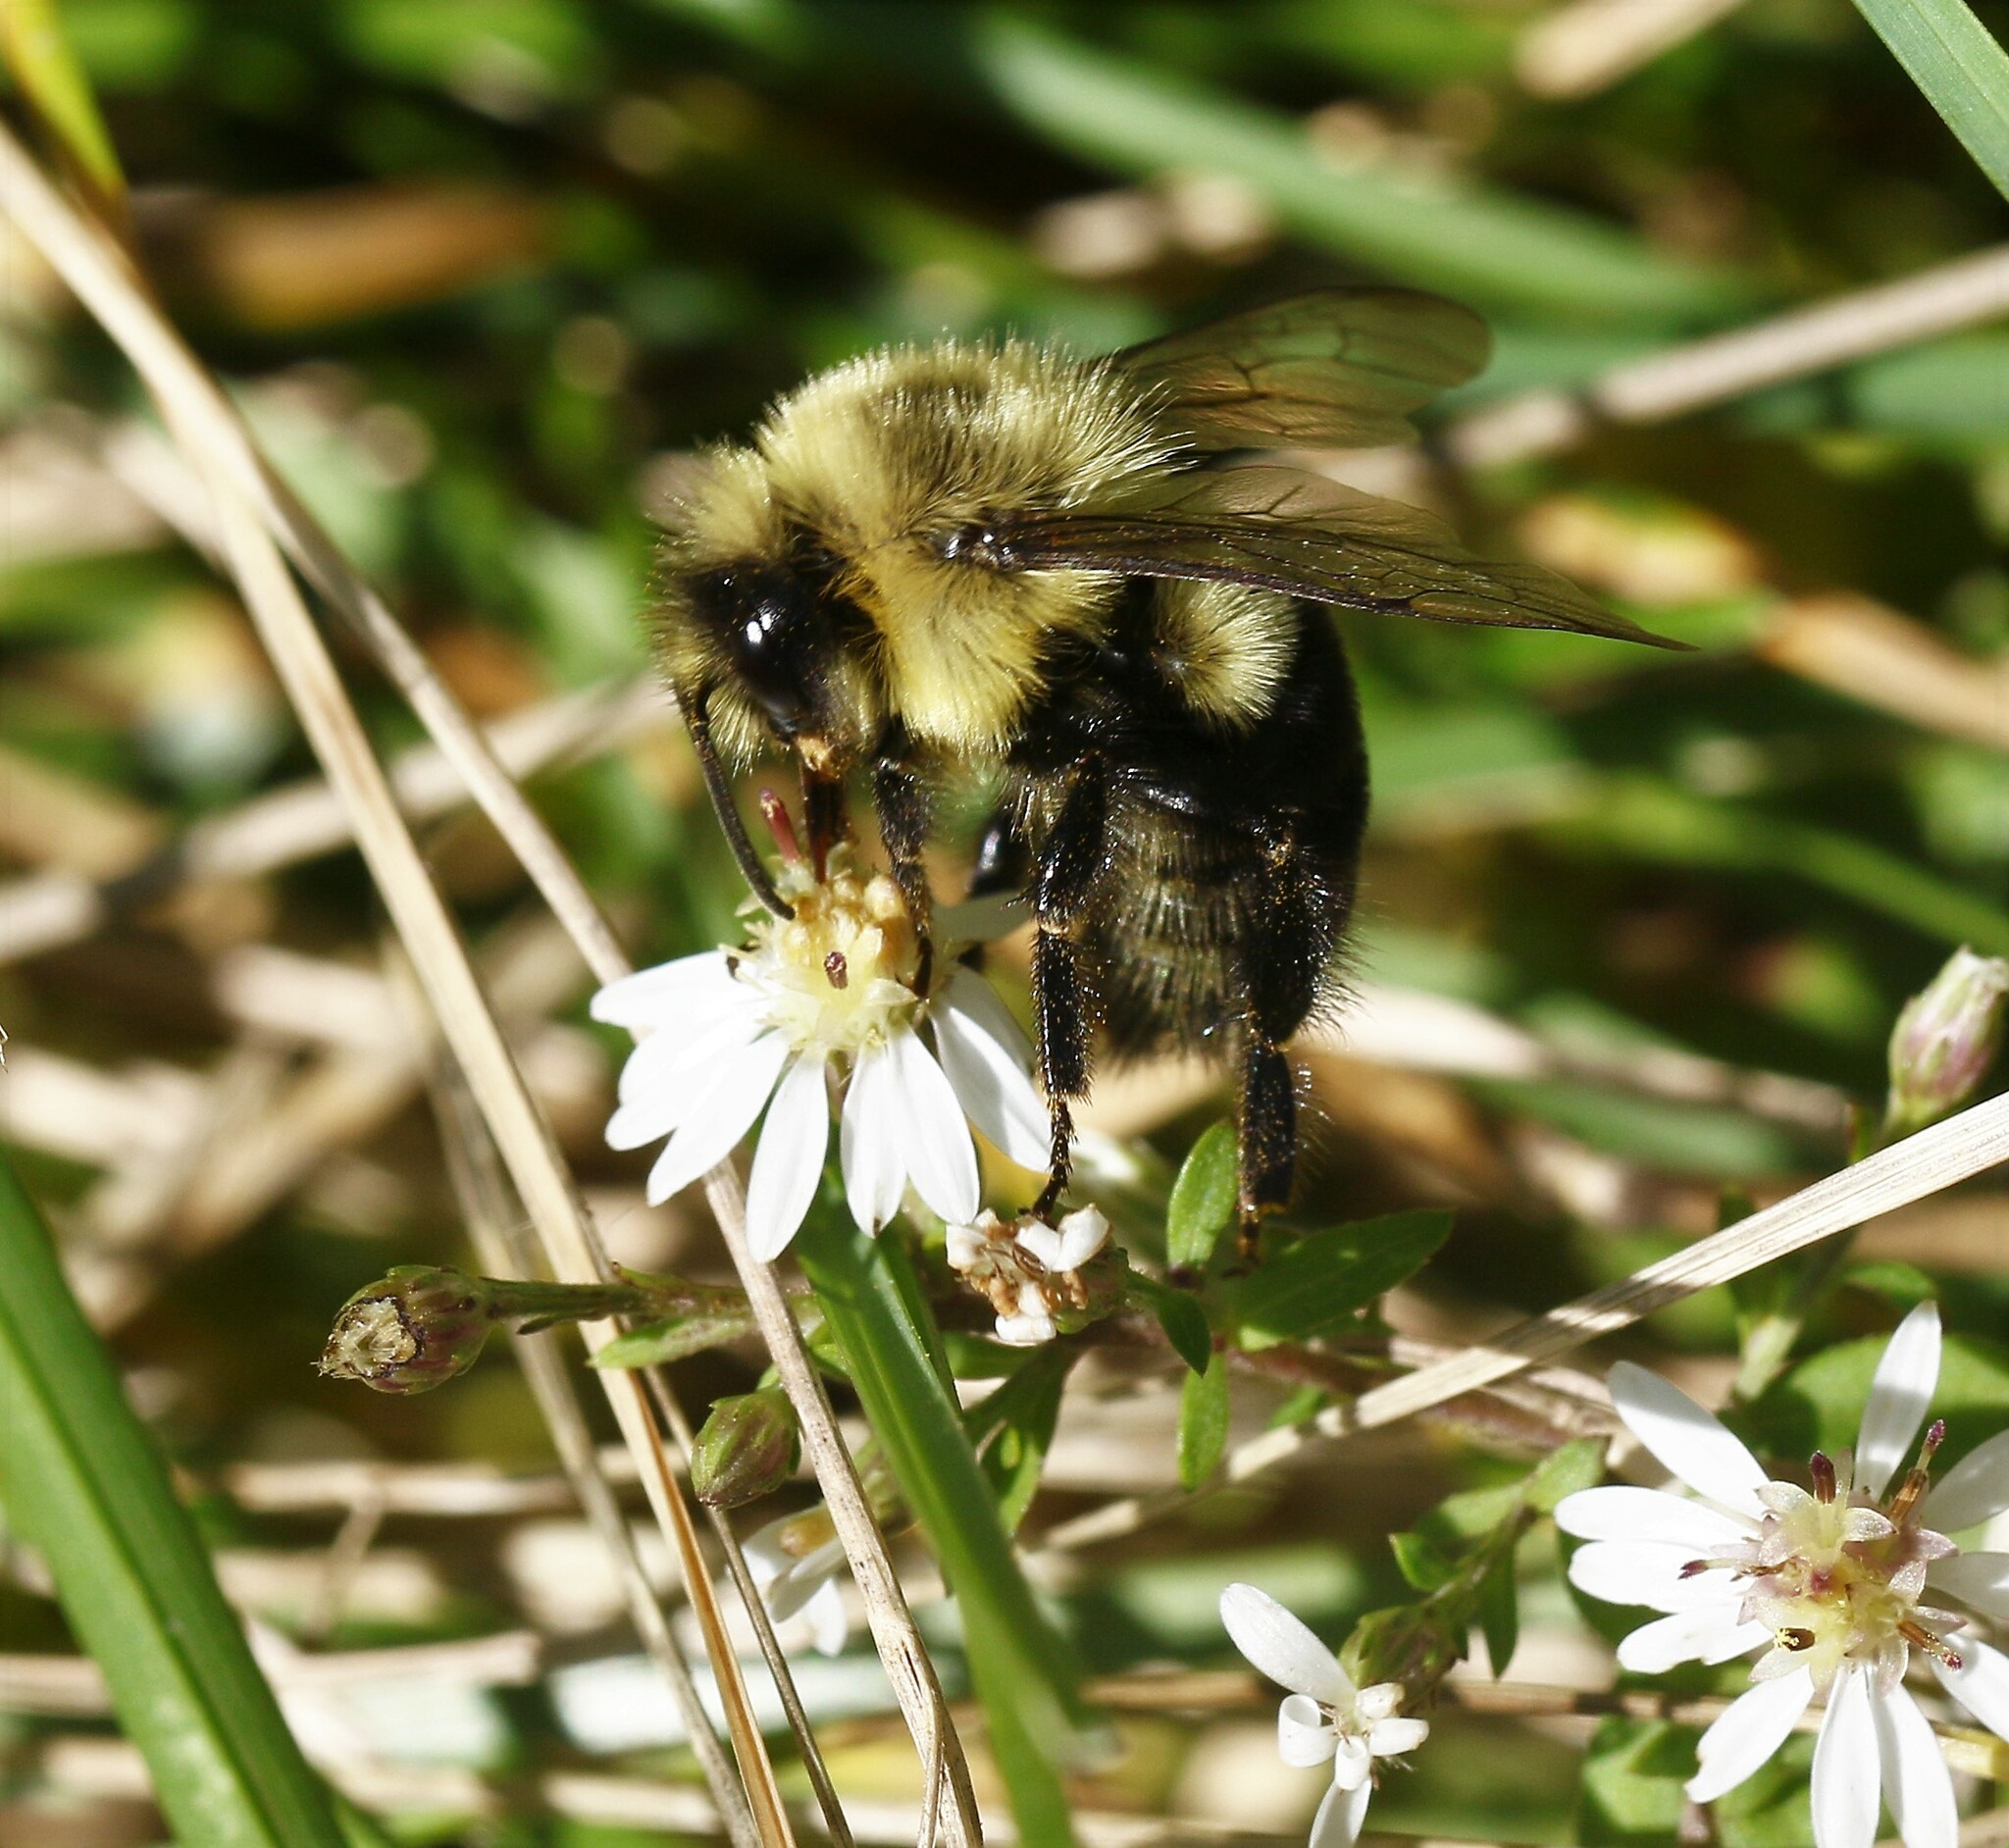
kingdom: Animalia
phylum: Arthropoda
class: Insecta
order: Hymenoptera
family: Apidae
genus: Bombus
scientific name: Bombus impatiens
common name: Common eastern bumble bee
